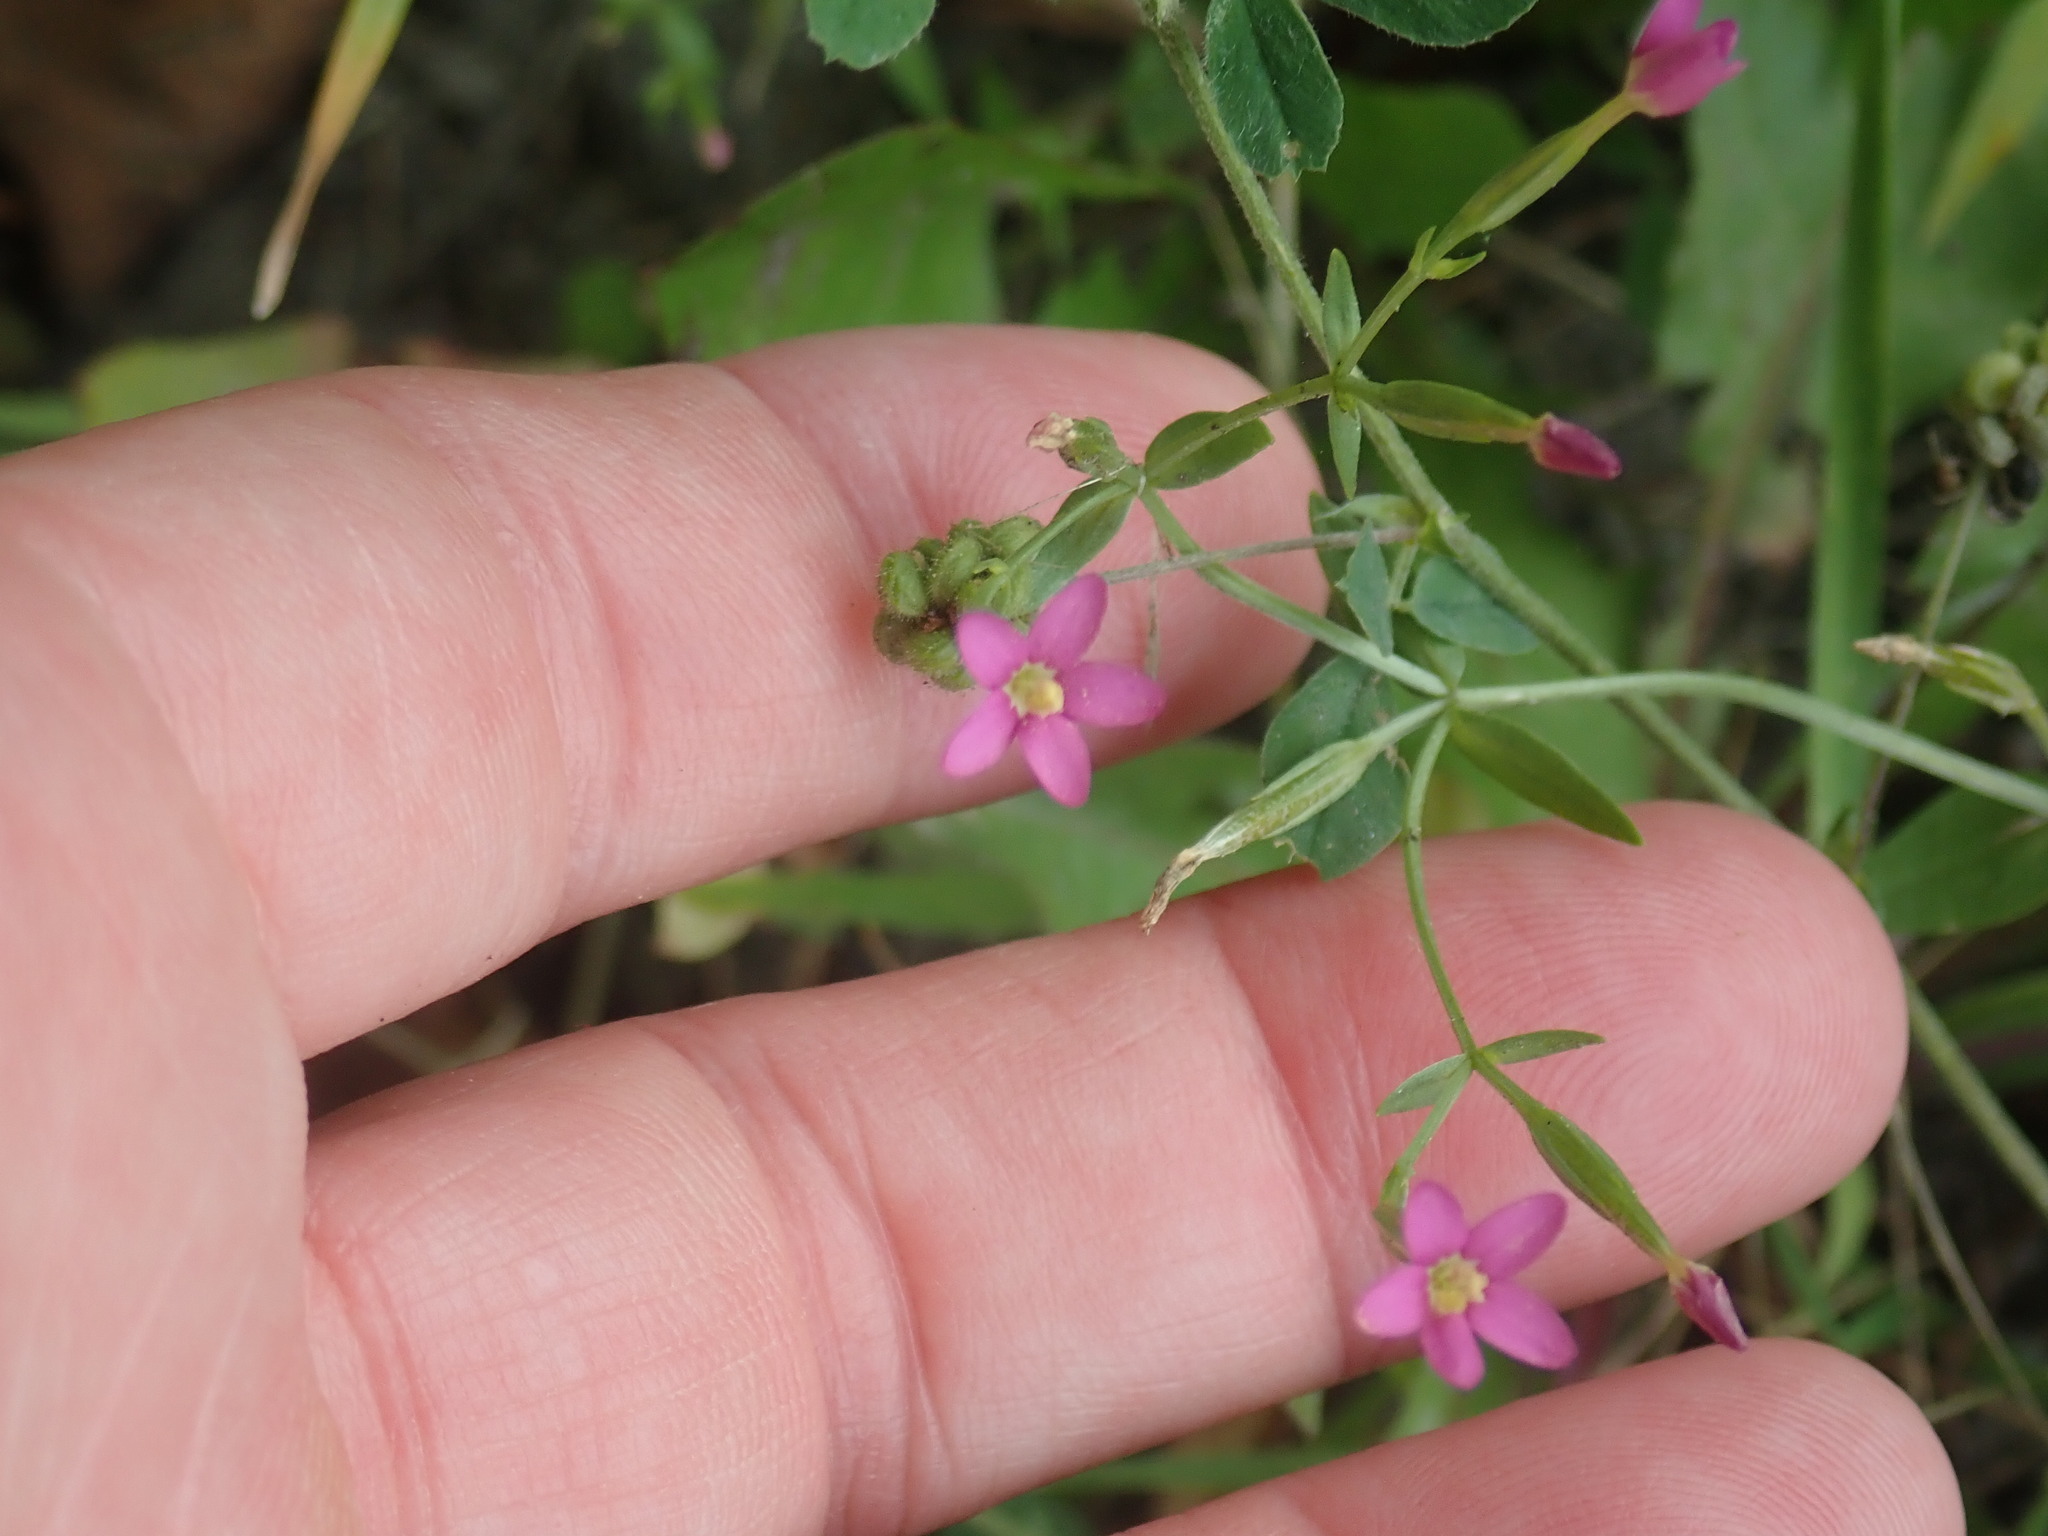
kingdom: Plantae
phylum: Tracheophyta
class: Magnoliopsida
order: Gentianales
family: Gentianaceae
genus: Centaurium
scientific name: Centaurium pulchellum
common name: Lesser centaury
